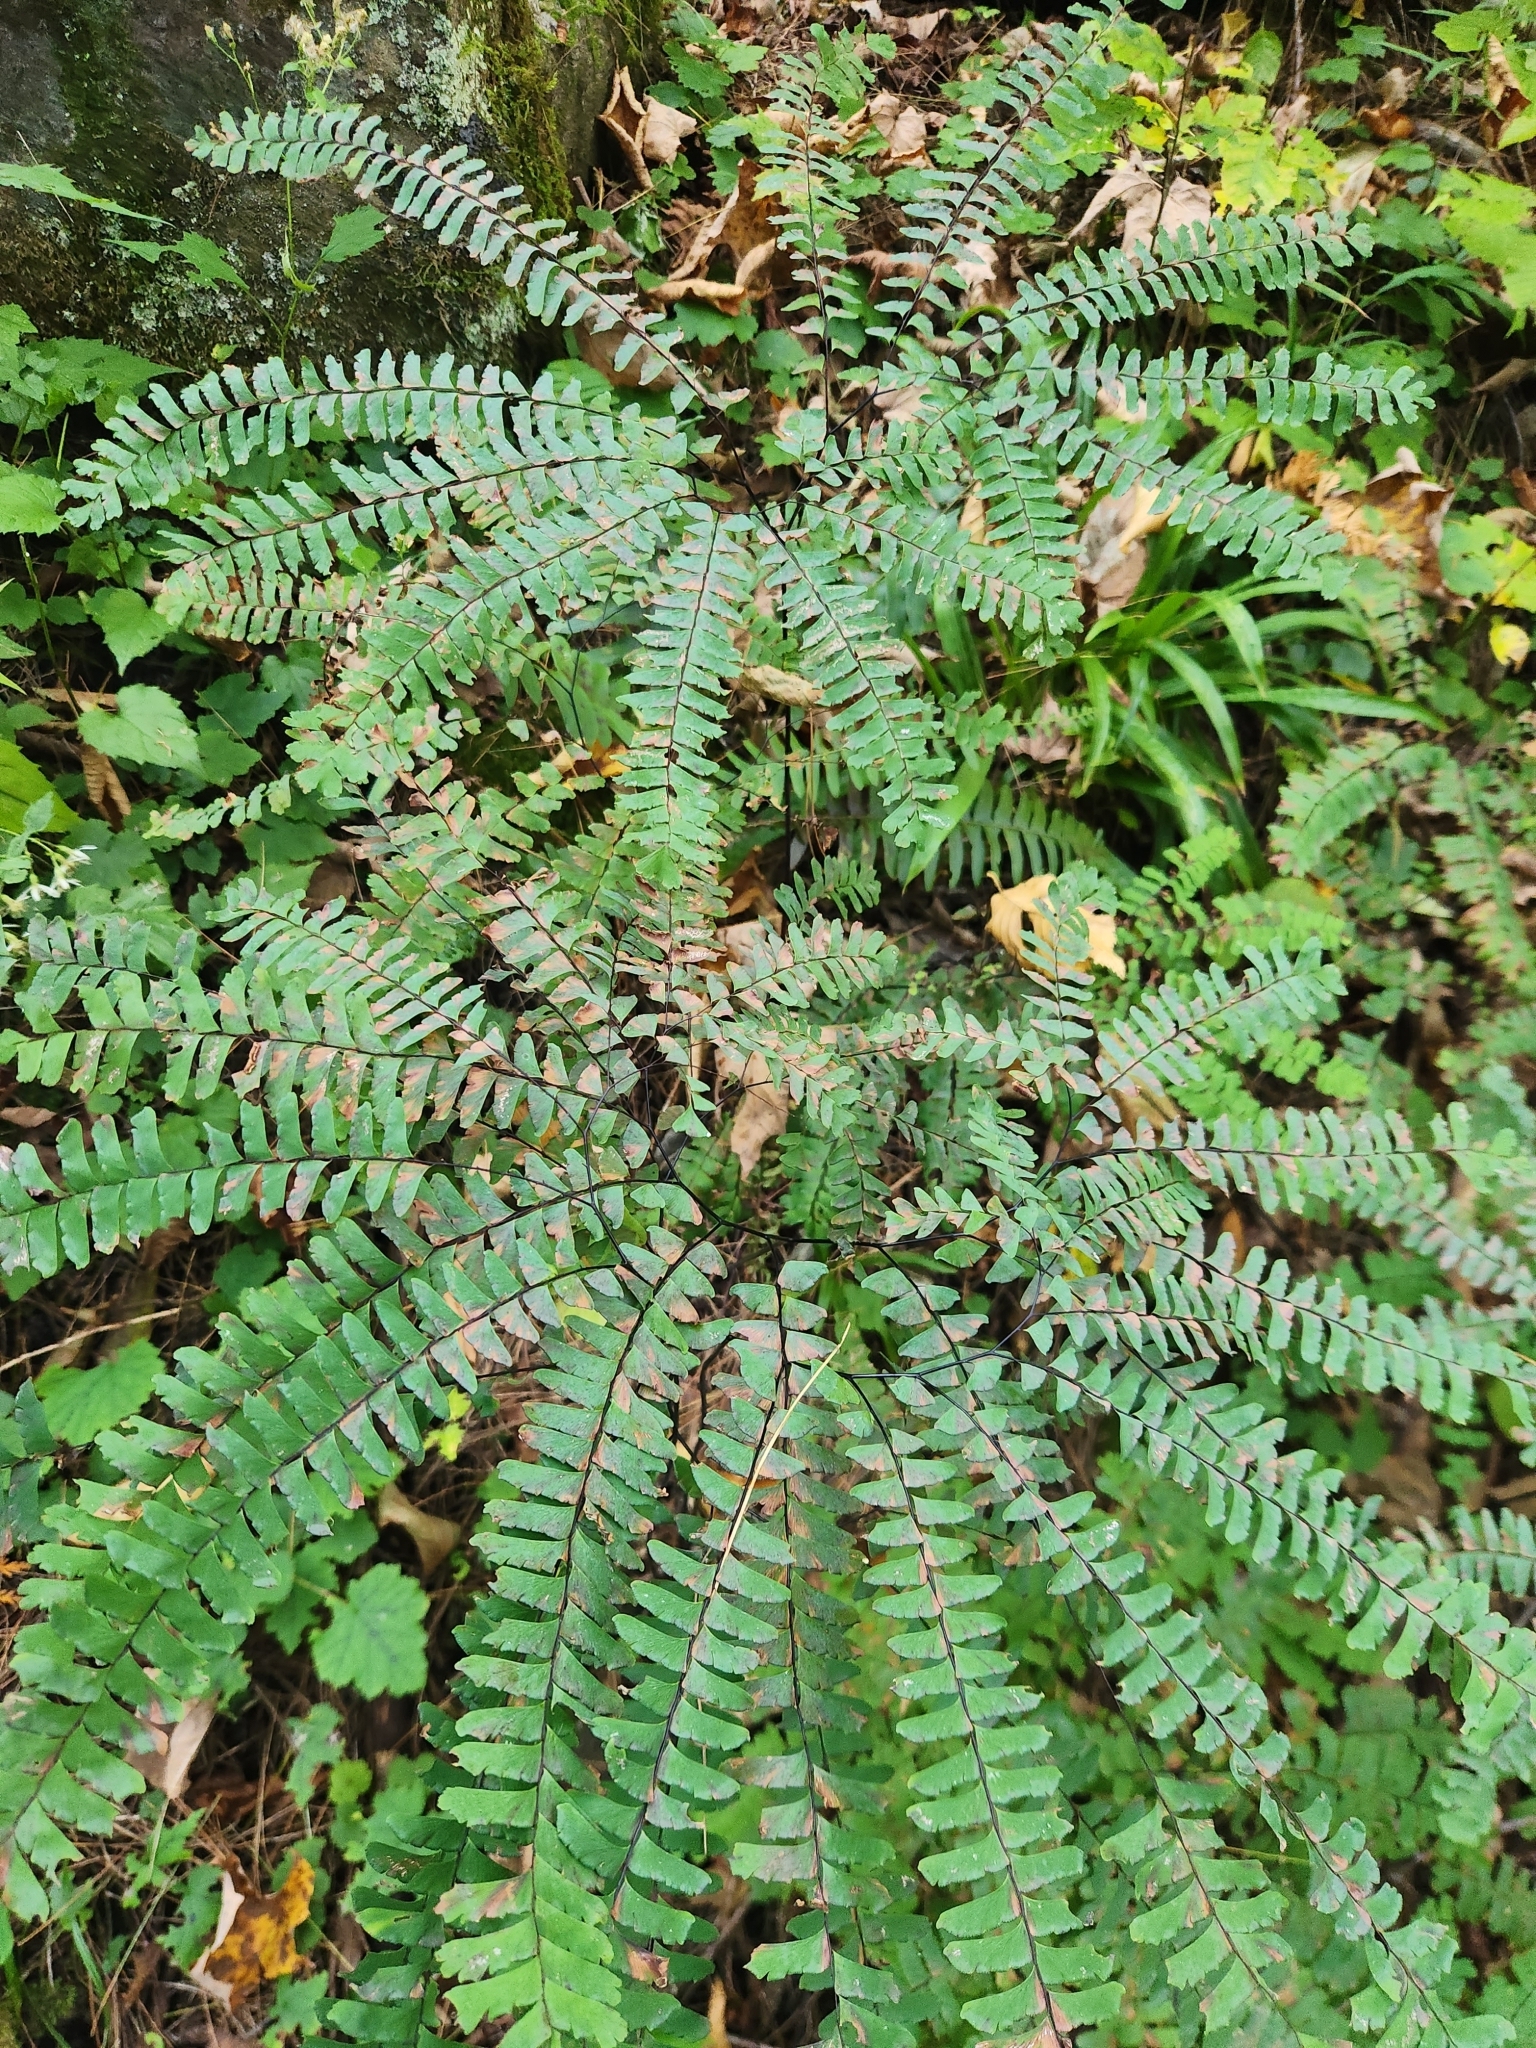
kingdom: Plantae
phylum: Tracheophyta
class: Polypodiopsida
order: Polypodiales
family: Pteridaceae
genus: Adiantum
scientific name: Adiantum pedatum
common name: Five-finger fern
